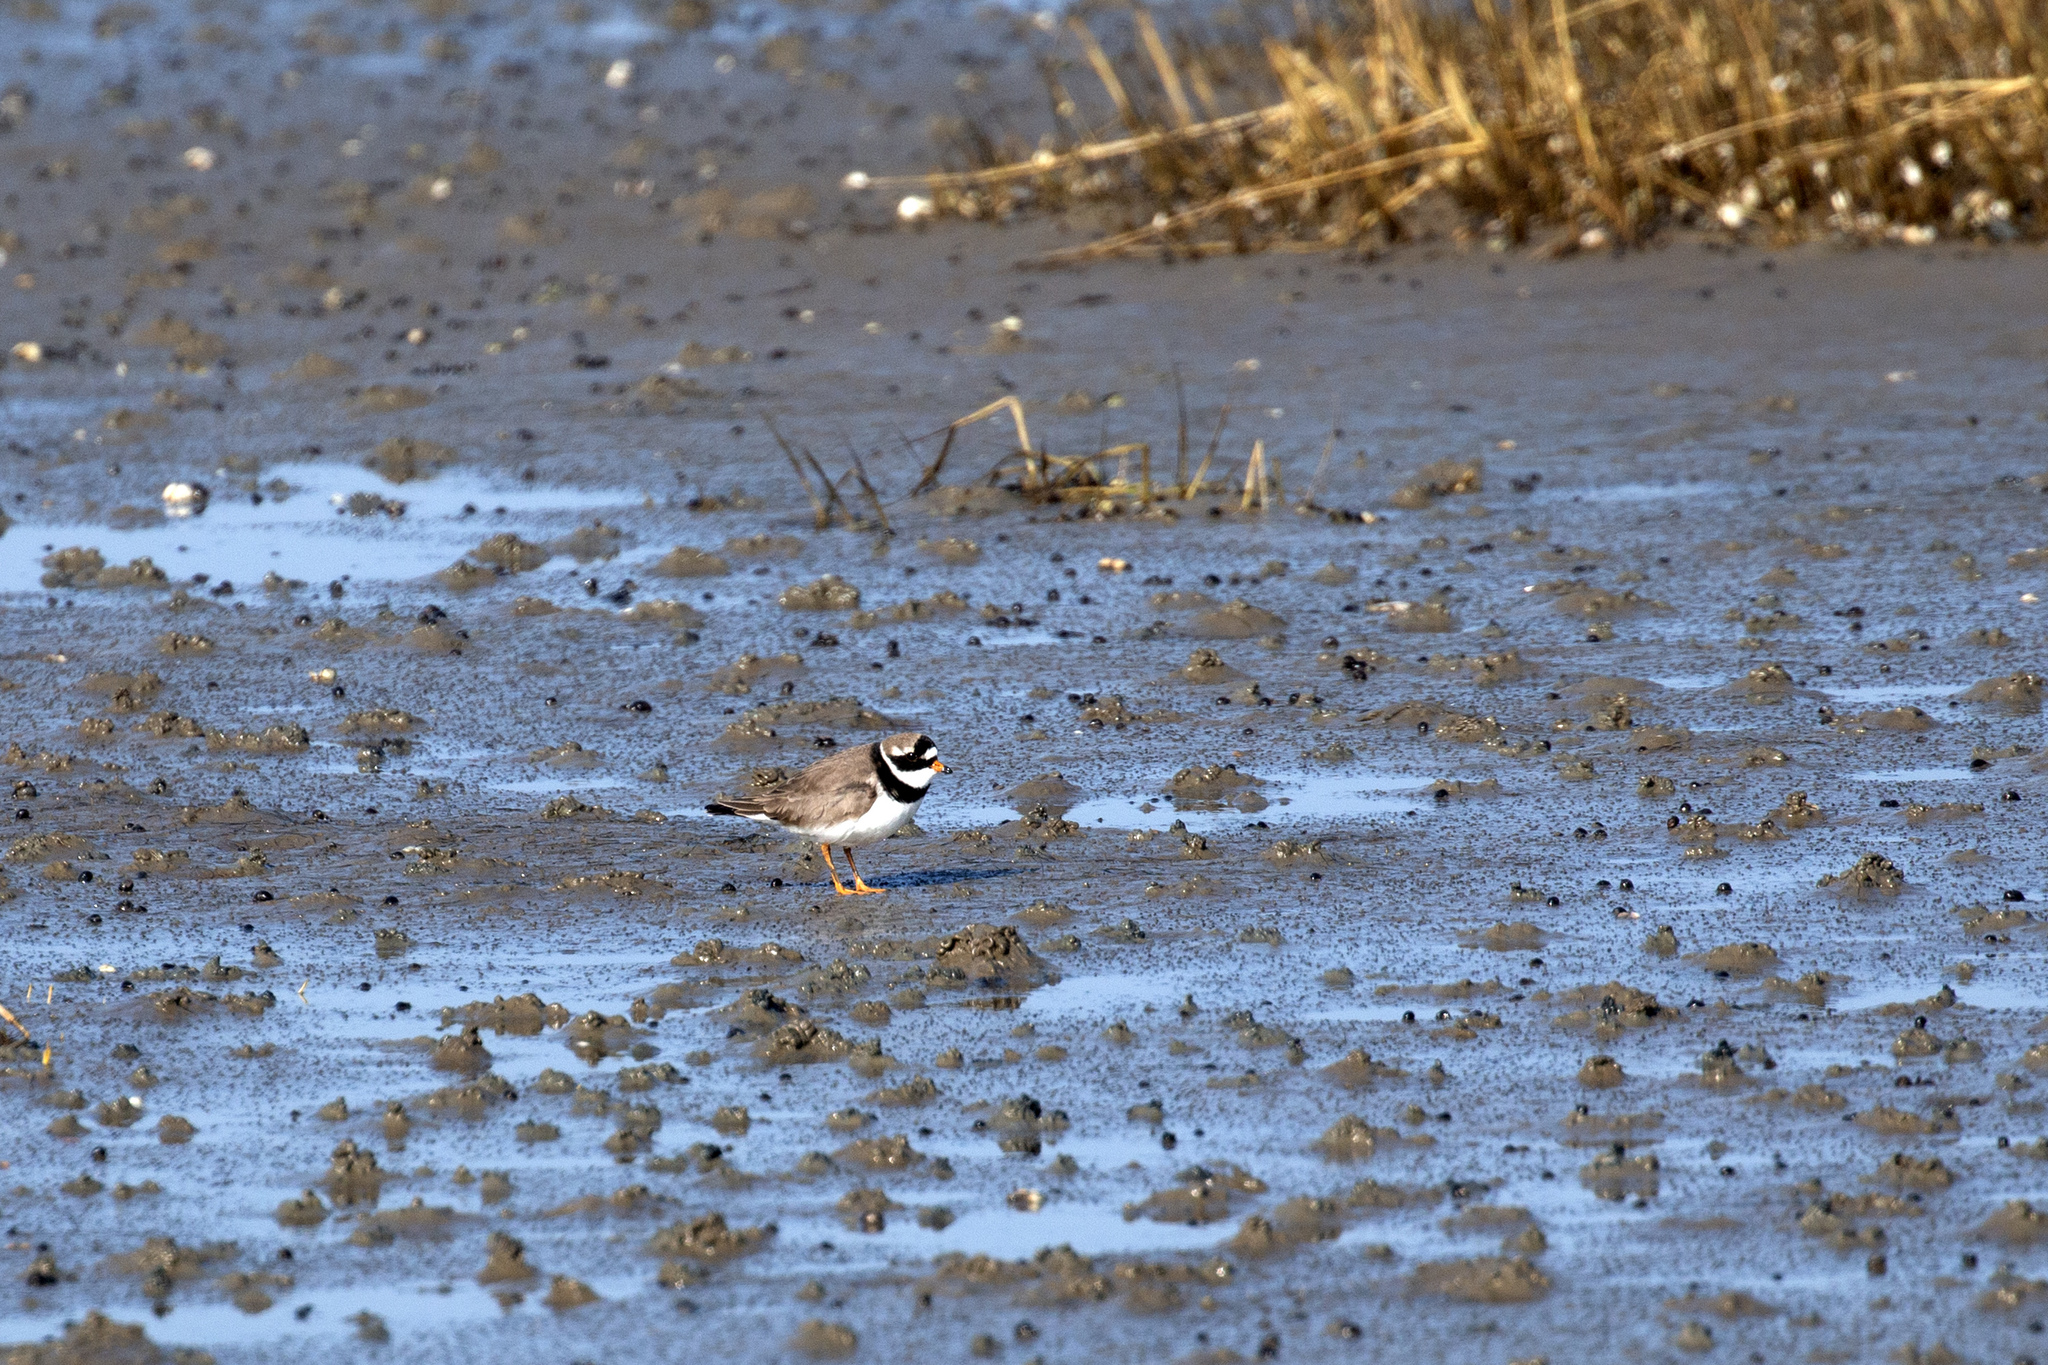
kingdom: Animalia
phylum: Chordata
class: Aves
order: Charadriiformes
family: Charadriidae
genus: Charadrius
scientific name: Charadrius hiaticula
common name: Common ringed plover
